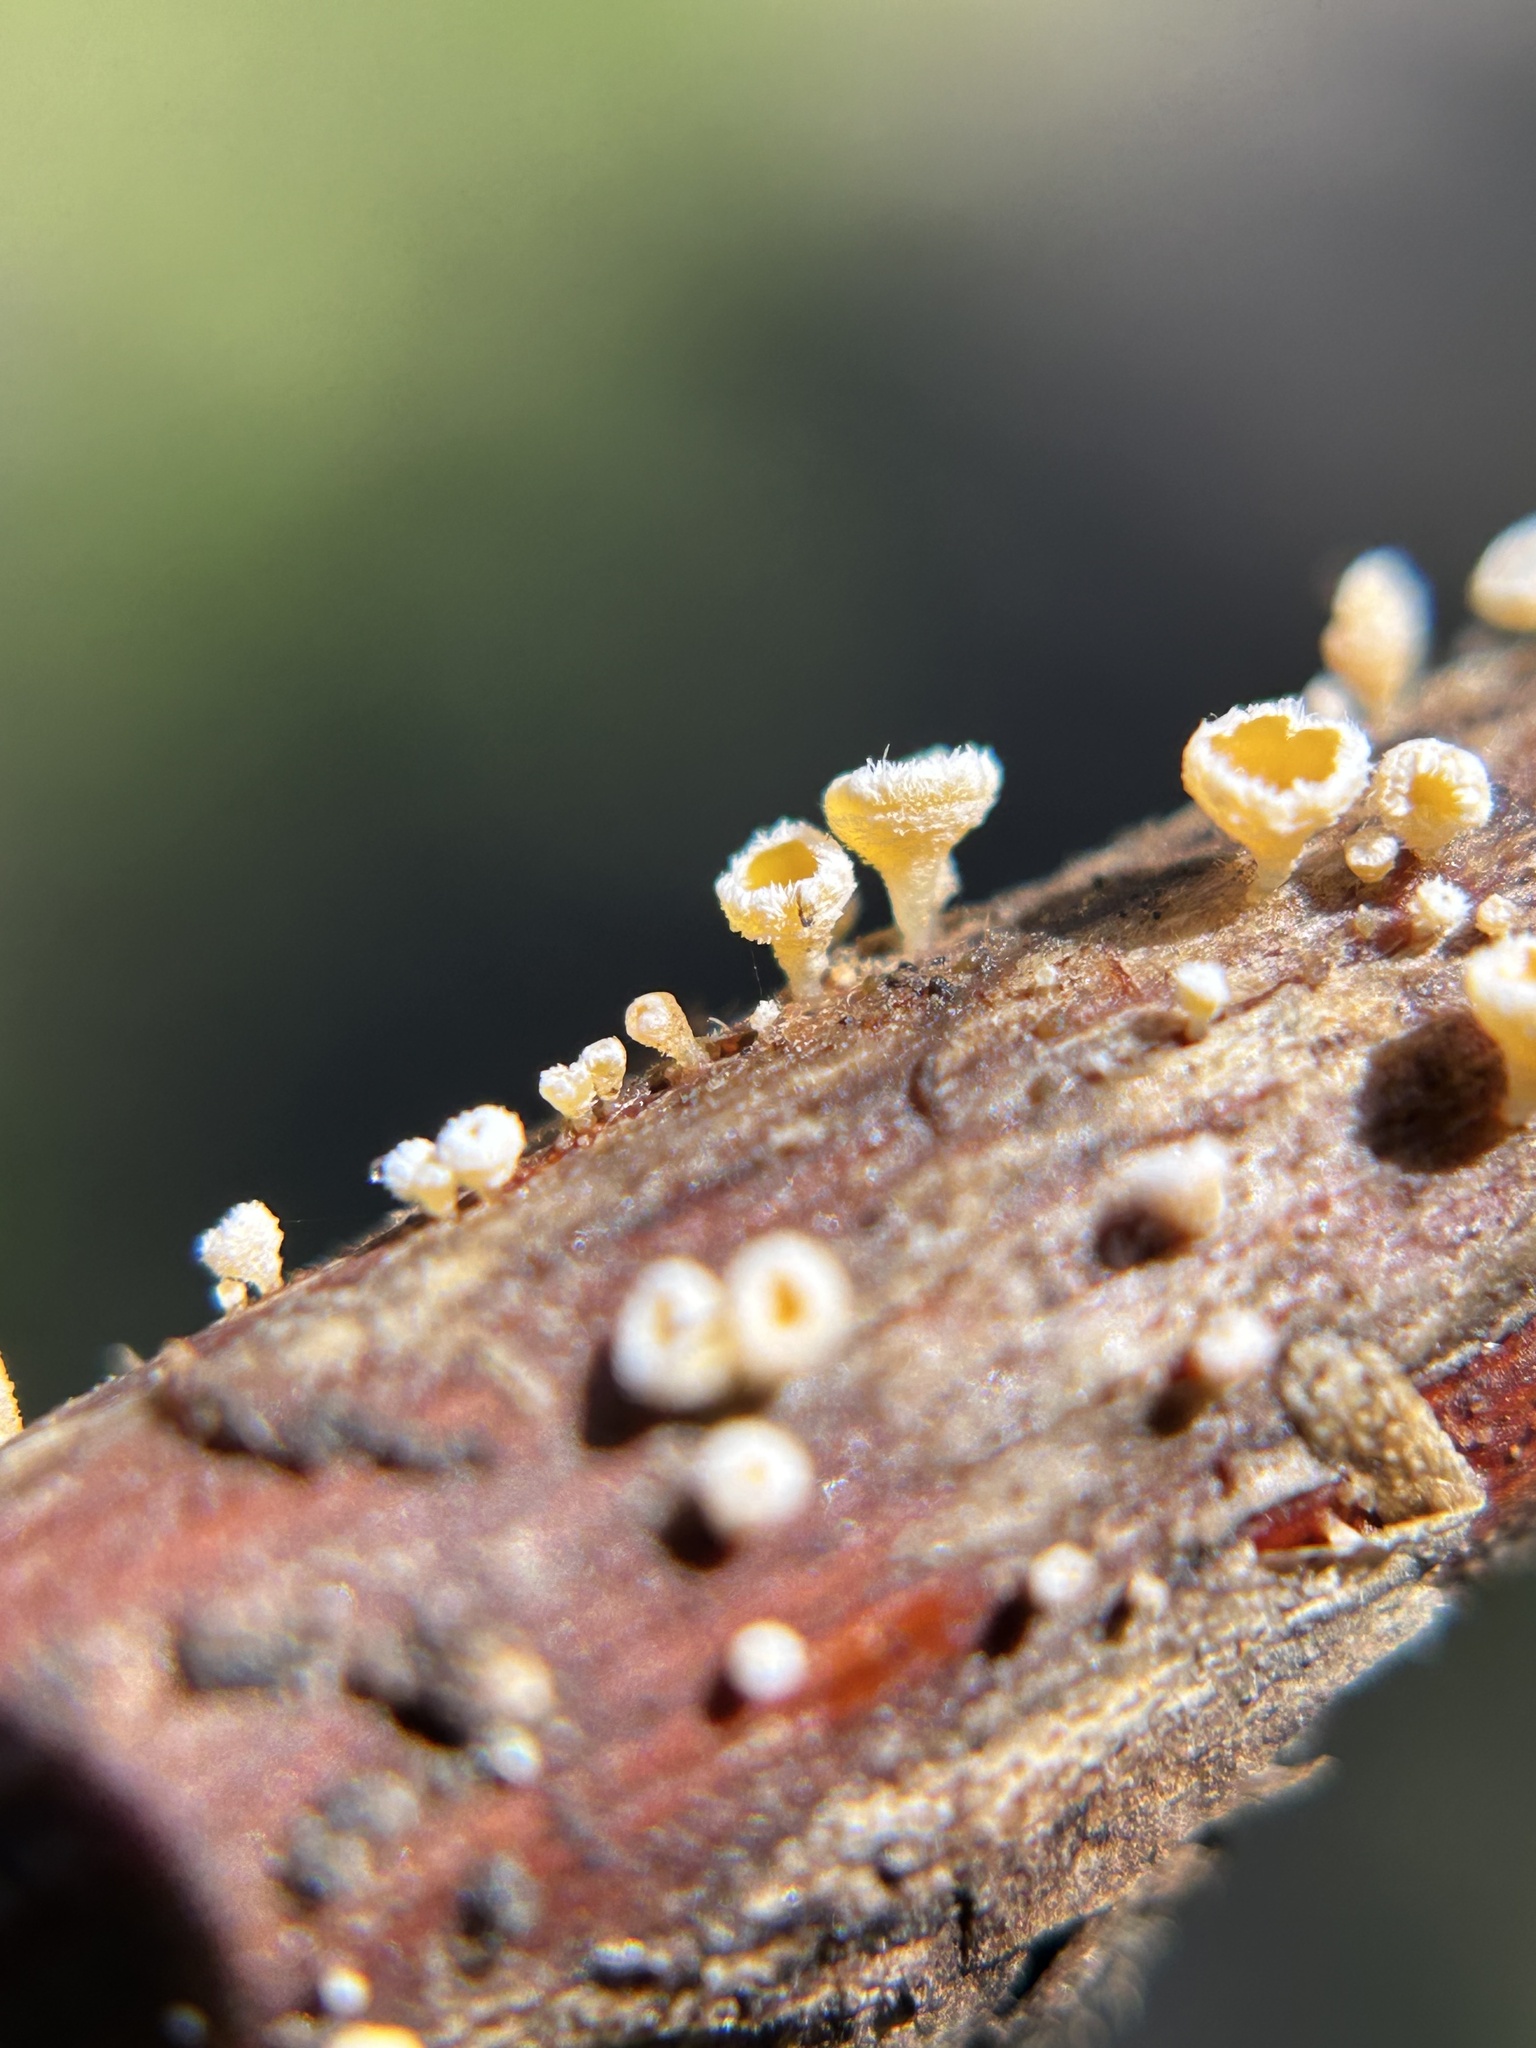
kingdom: Fungi
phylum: Ascomycota
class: Leotiomycetes
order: Helotiales
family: Lachnaceae
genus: Capitotricha
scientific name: Capitotricha bicolor
